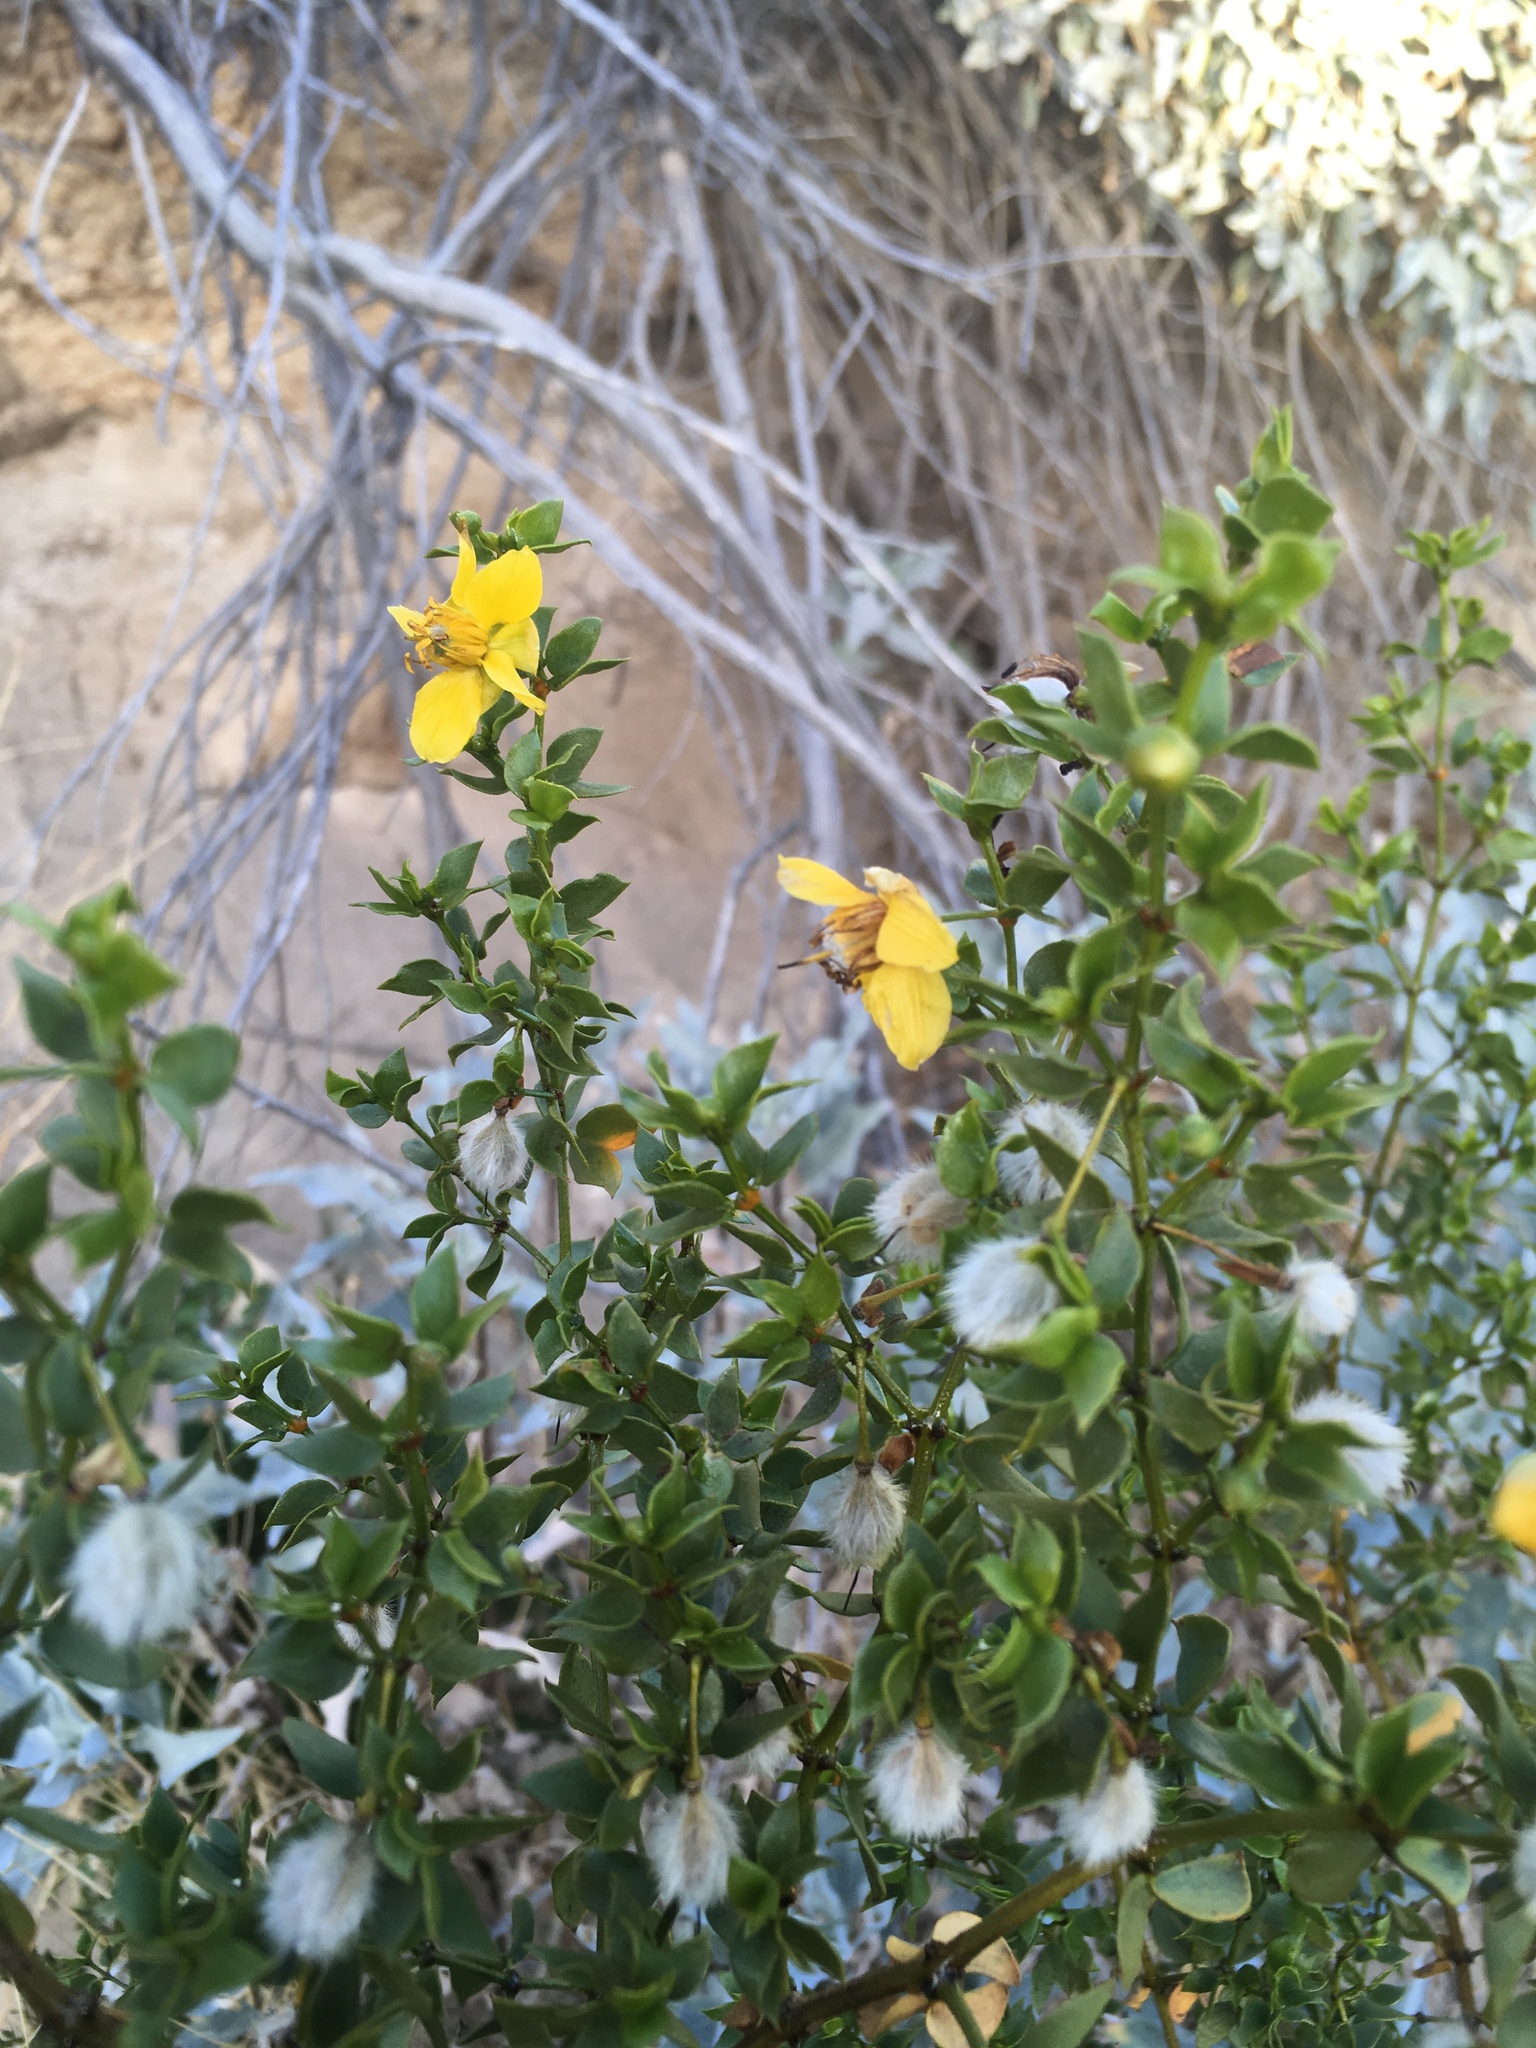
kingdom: Plantae
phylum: Tracheophyta
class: Magnoliopsida
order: Zygophyllales
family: Zygophyllaceae
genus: Larrea
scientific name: Larrea tridentata
